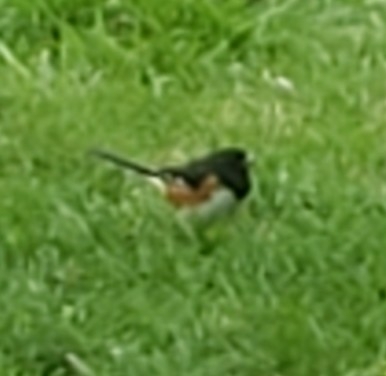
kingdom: Animalia
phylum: Chordata
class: Aves
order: Passeriformes
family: Passerellidae
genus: Pipilo
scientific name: Pipilo erythrophthalmus
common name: Eastern towhee
